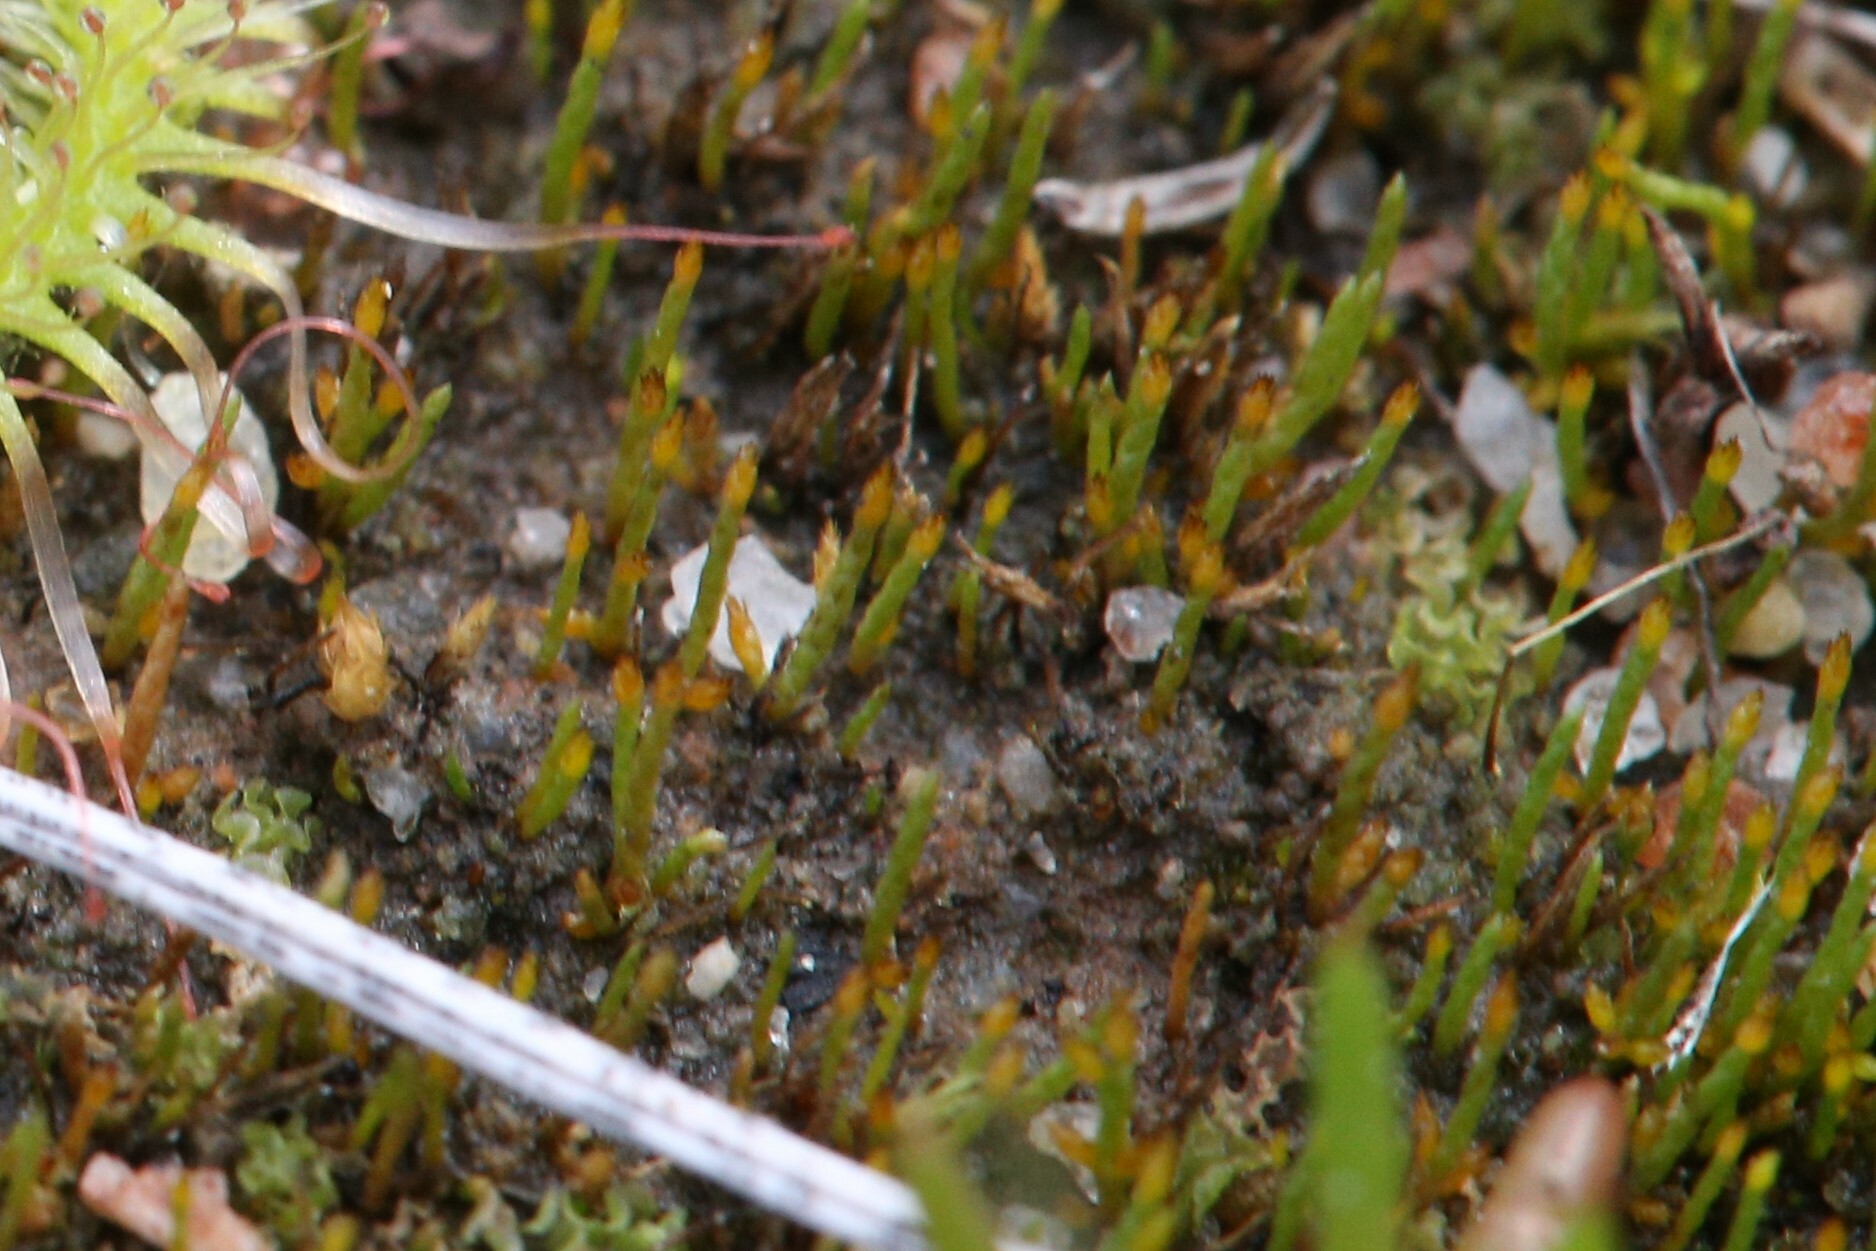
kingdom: Plantae
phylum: Bryophyta
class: Bryopsida
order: Dicranales
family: Dicranellaceae
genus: Eccremidium
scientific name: Eccremidium pulchellum
